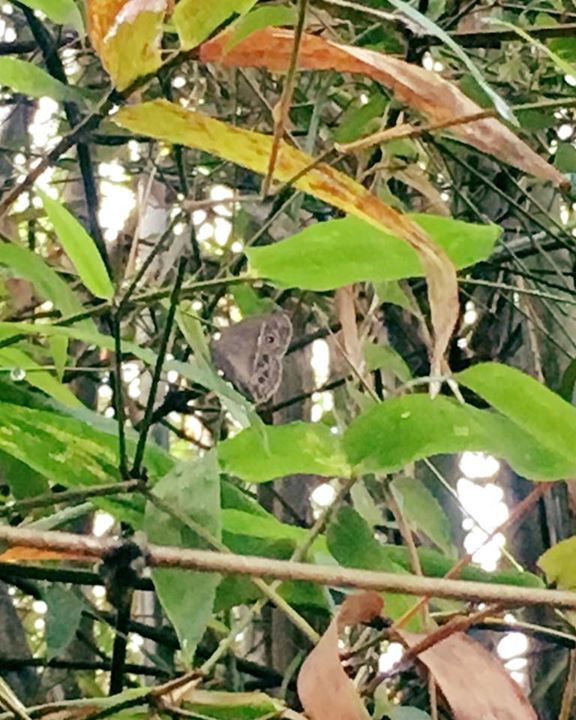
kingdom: Animalia
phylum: Arthropoda
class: Insecta
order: Lepidoptera
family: Nymphalidae
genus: Mycalesis
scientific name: Mycalesis mineus
